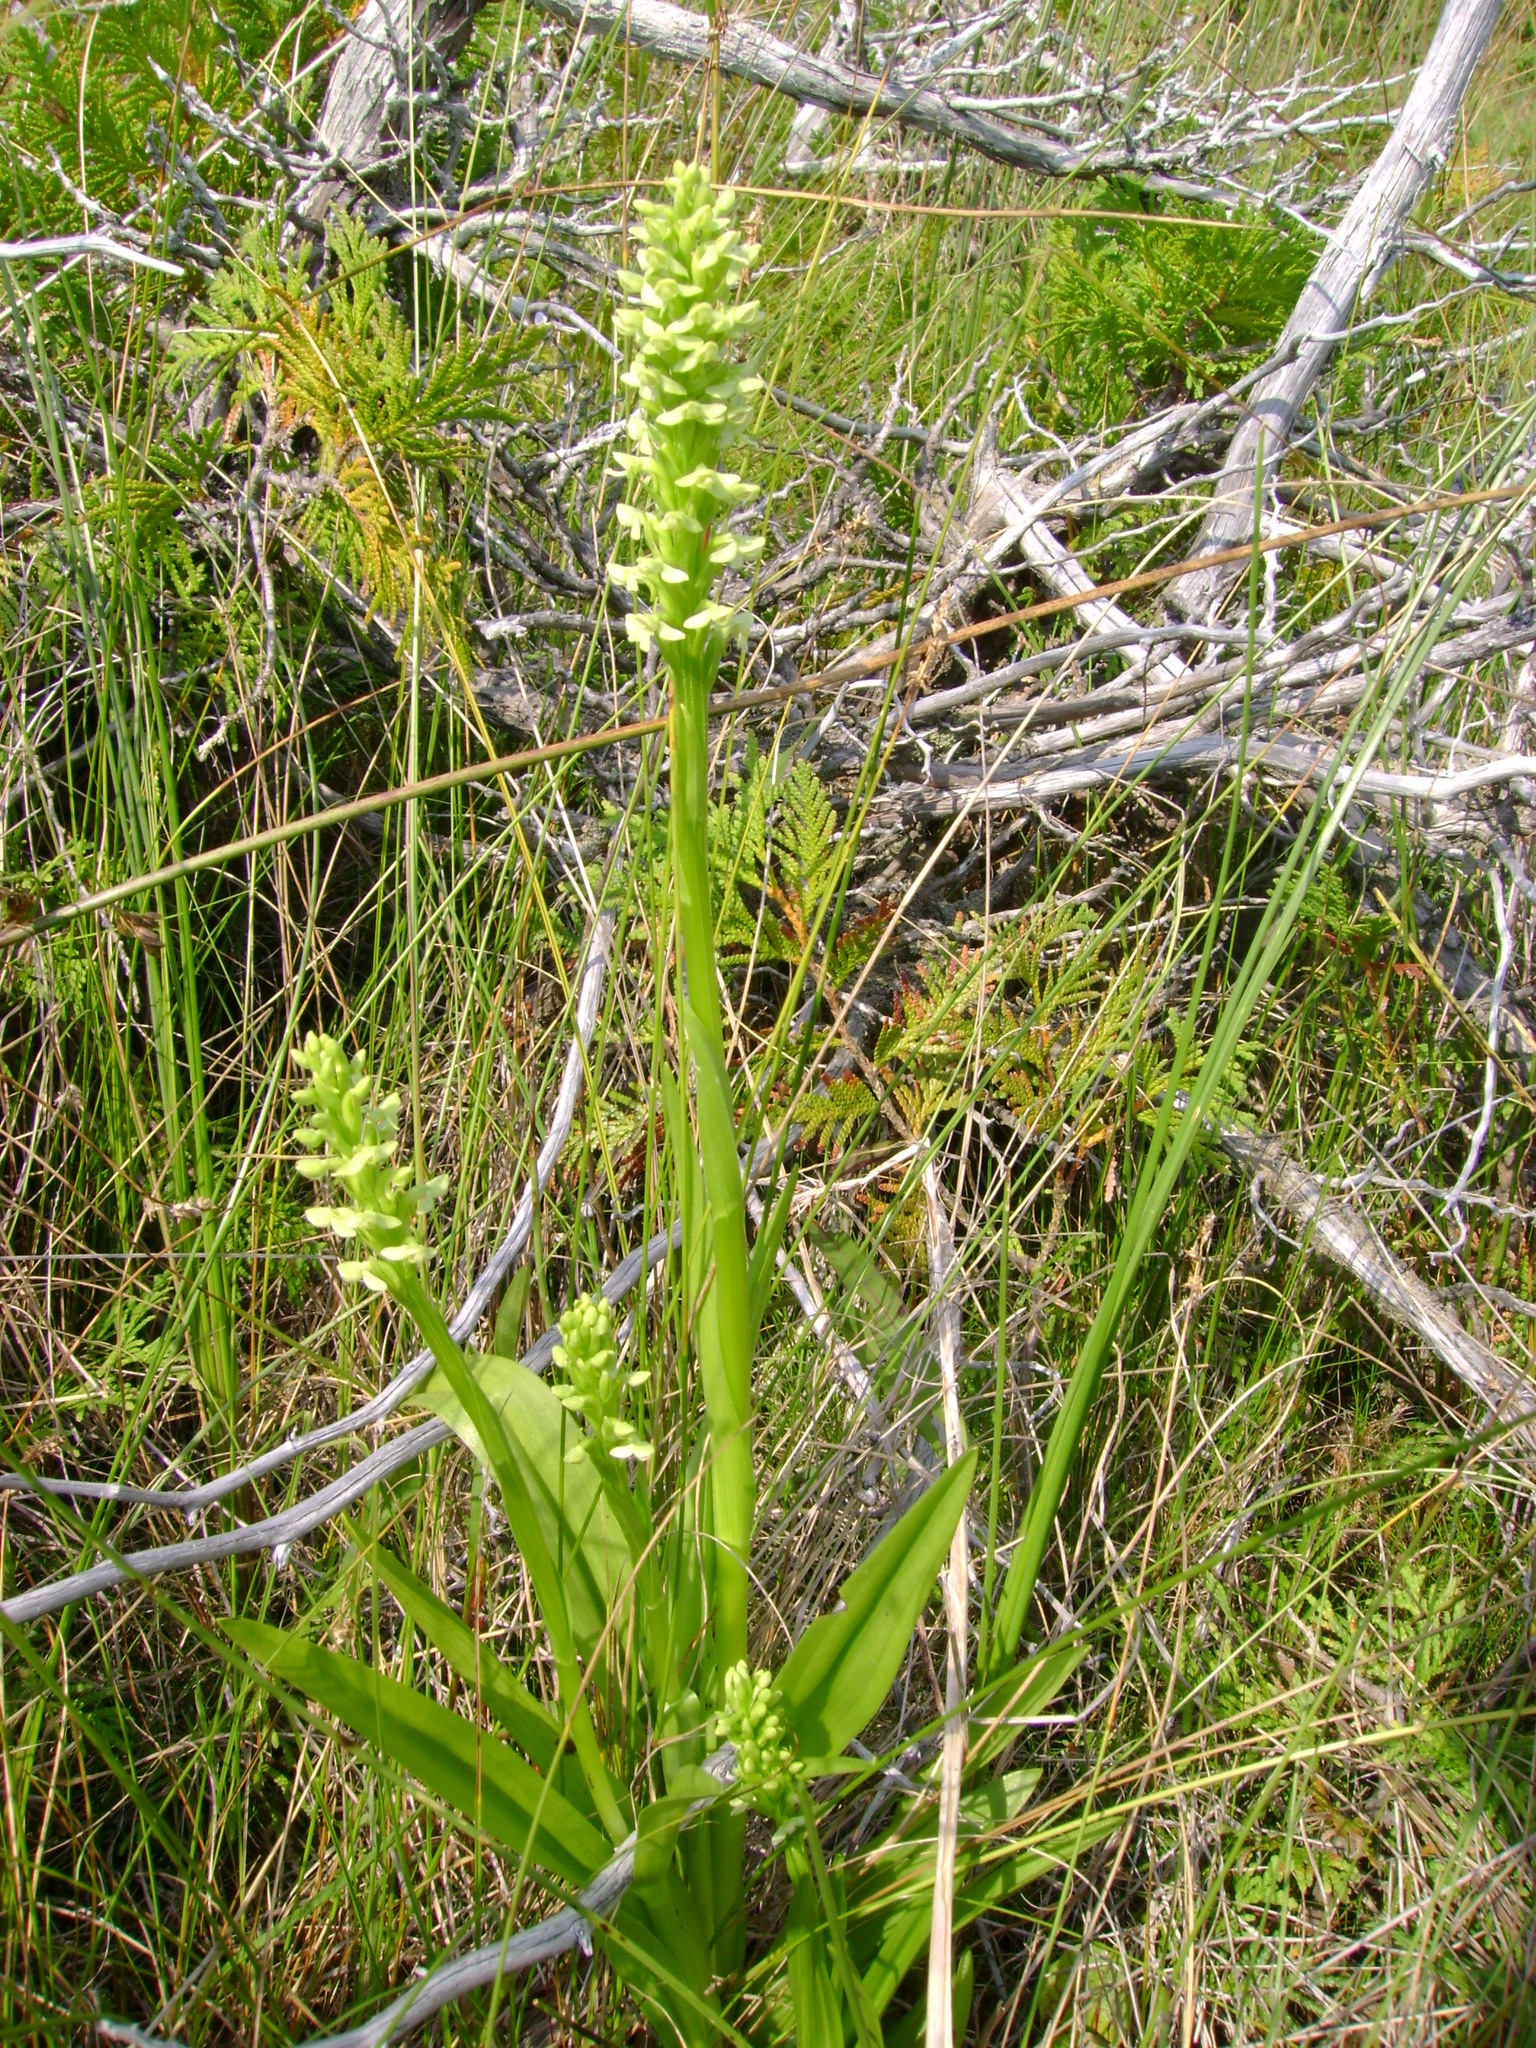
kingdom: Plantae
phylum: Tracheophyta
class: Liliopsida
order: Asparagales
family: Orchidaceae
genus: Platanthera
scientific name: Platanthera huronensis
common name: Fragrant green orchid
